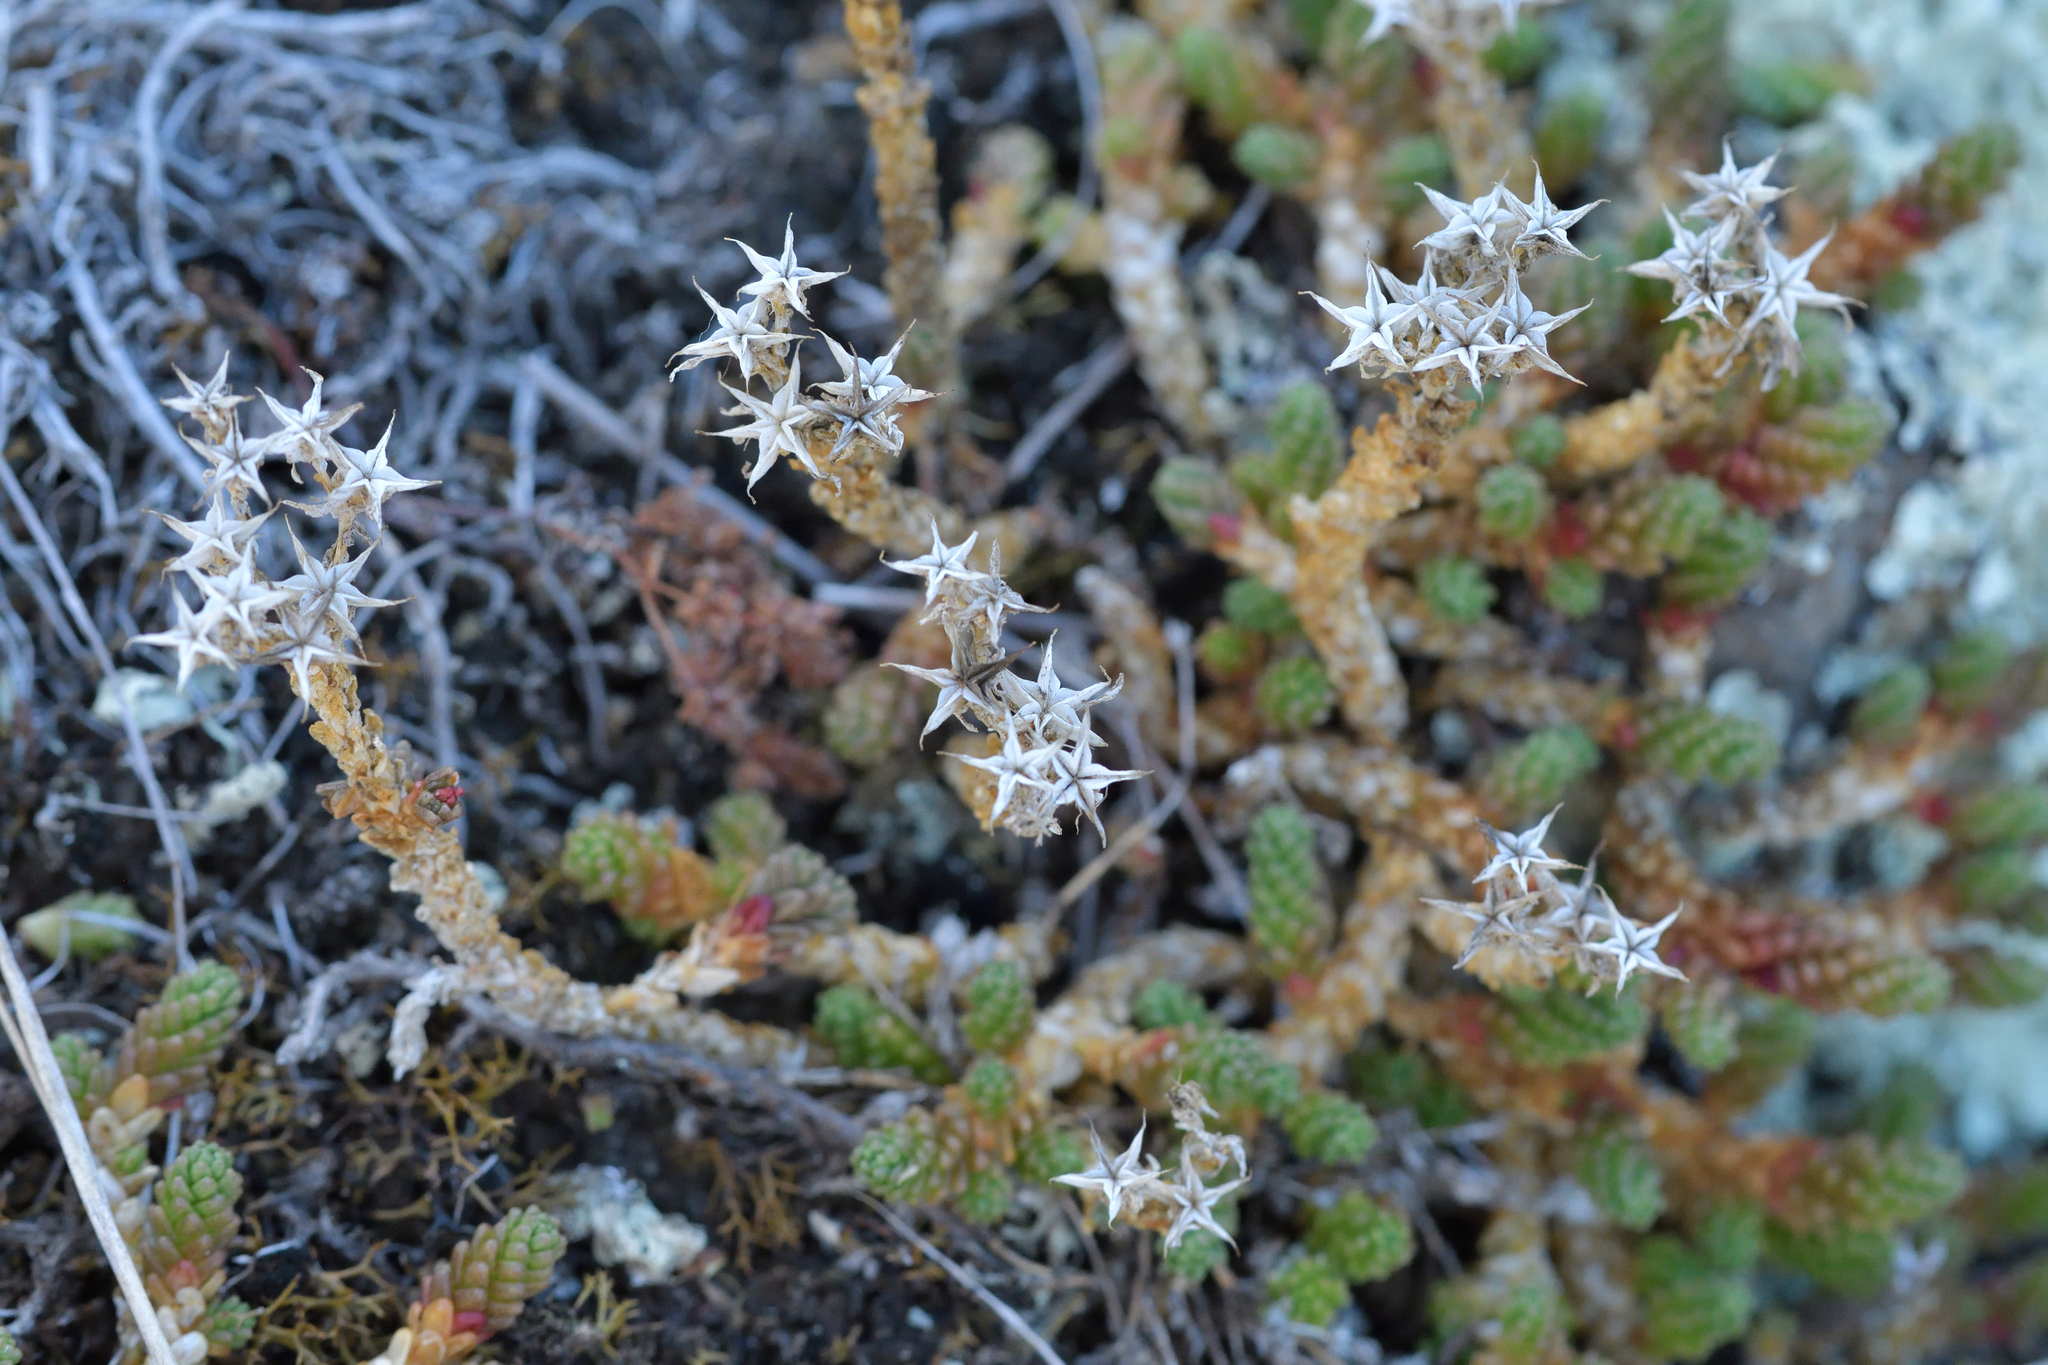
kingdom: Plantae
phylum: Tracheophyta
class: Magnoliopsida
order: Saxifragales
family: Crassulaceae
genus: Sedum
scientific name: Sedum acre
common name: Biting stonecrop
